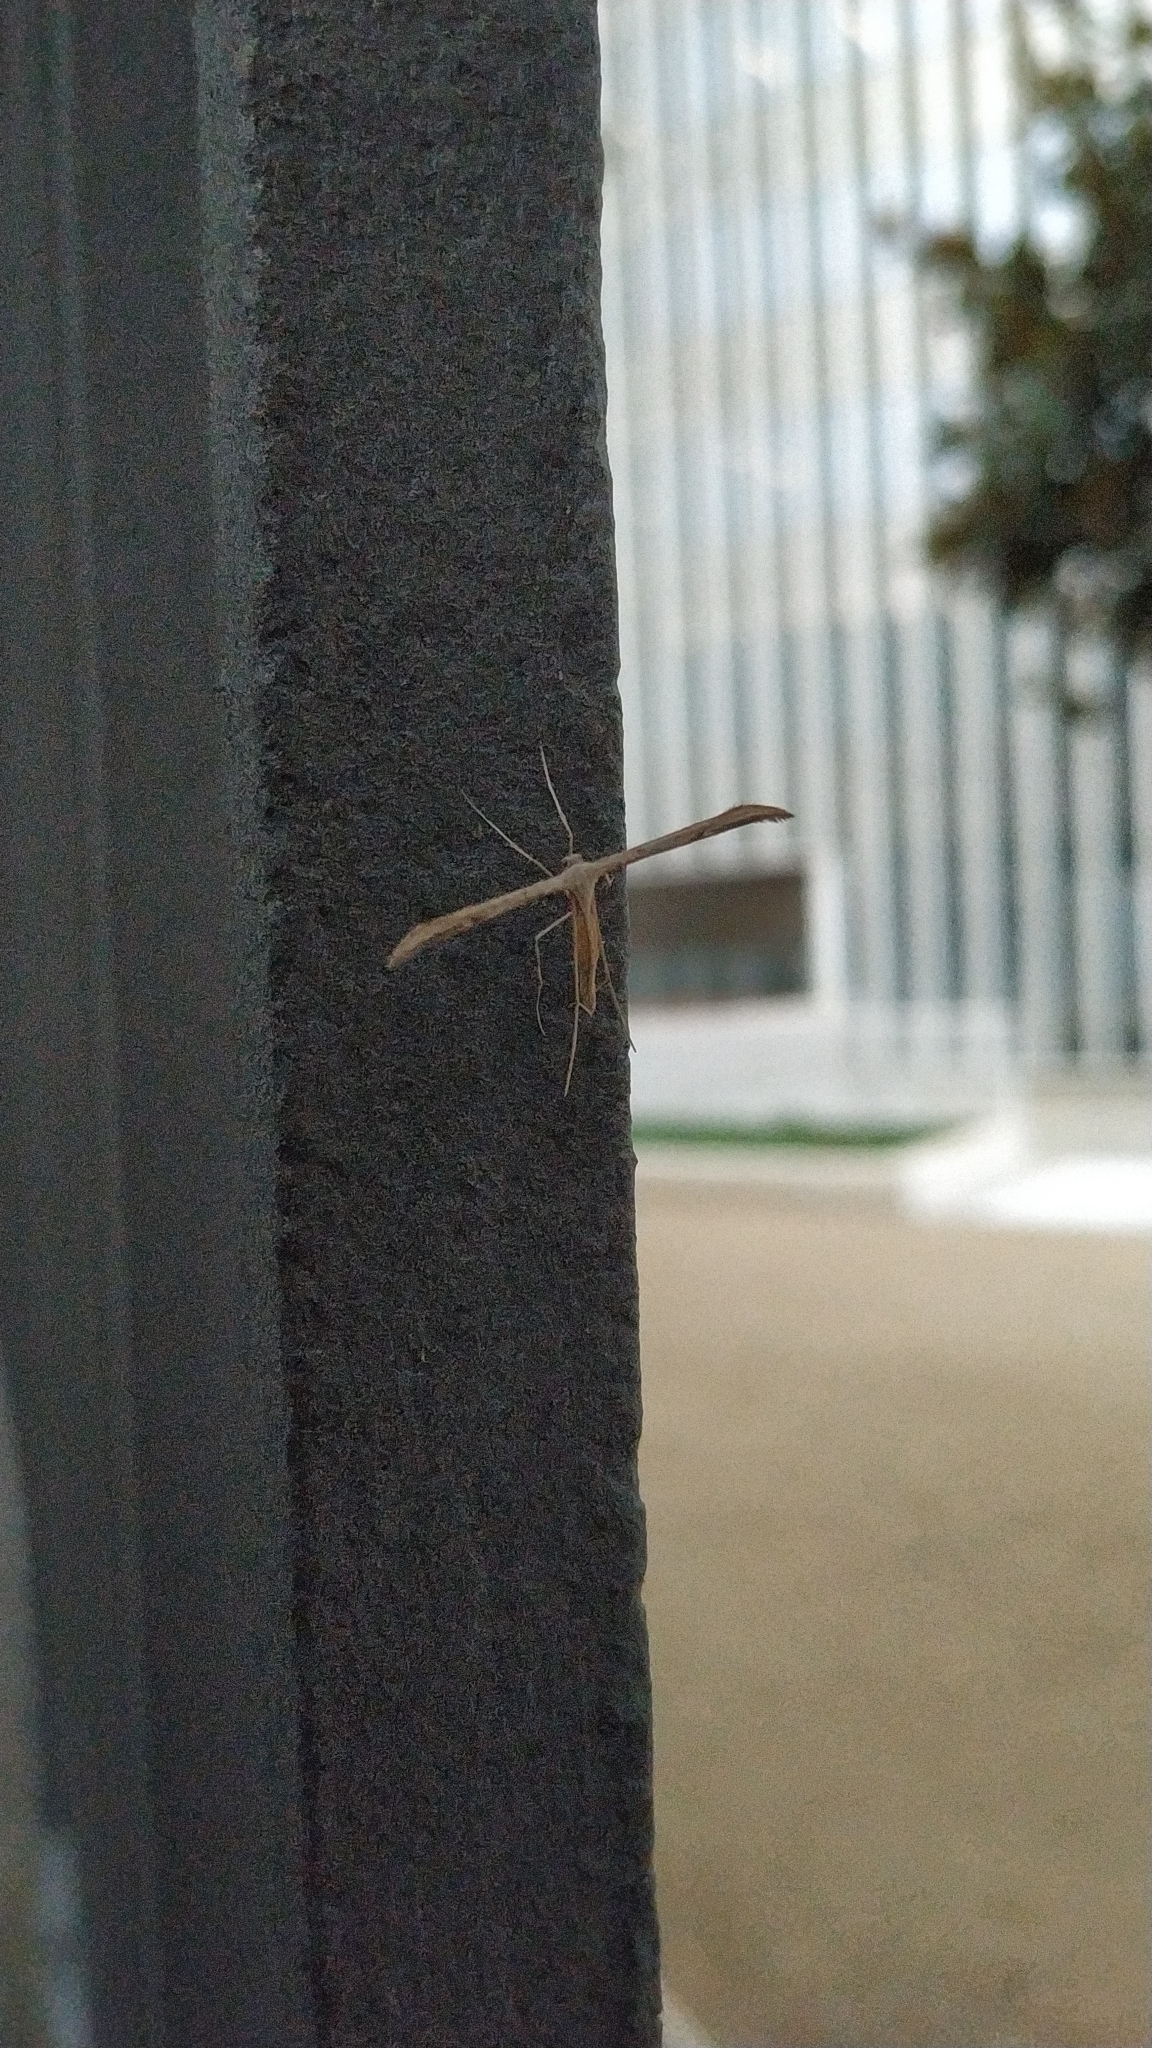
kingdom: Animalia
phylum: Arthropoda
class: Insecta
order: Lepidoptera
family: Pterophoridae
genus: Emmelina
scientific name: Emmelina monodactyla
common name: Common plume
